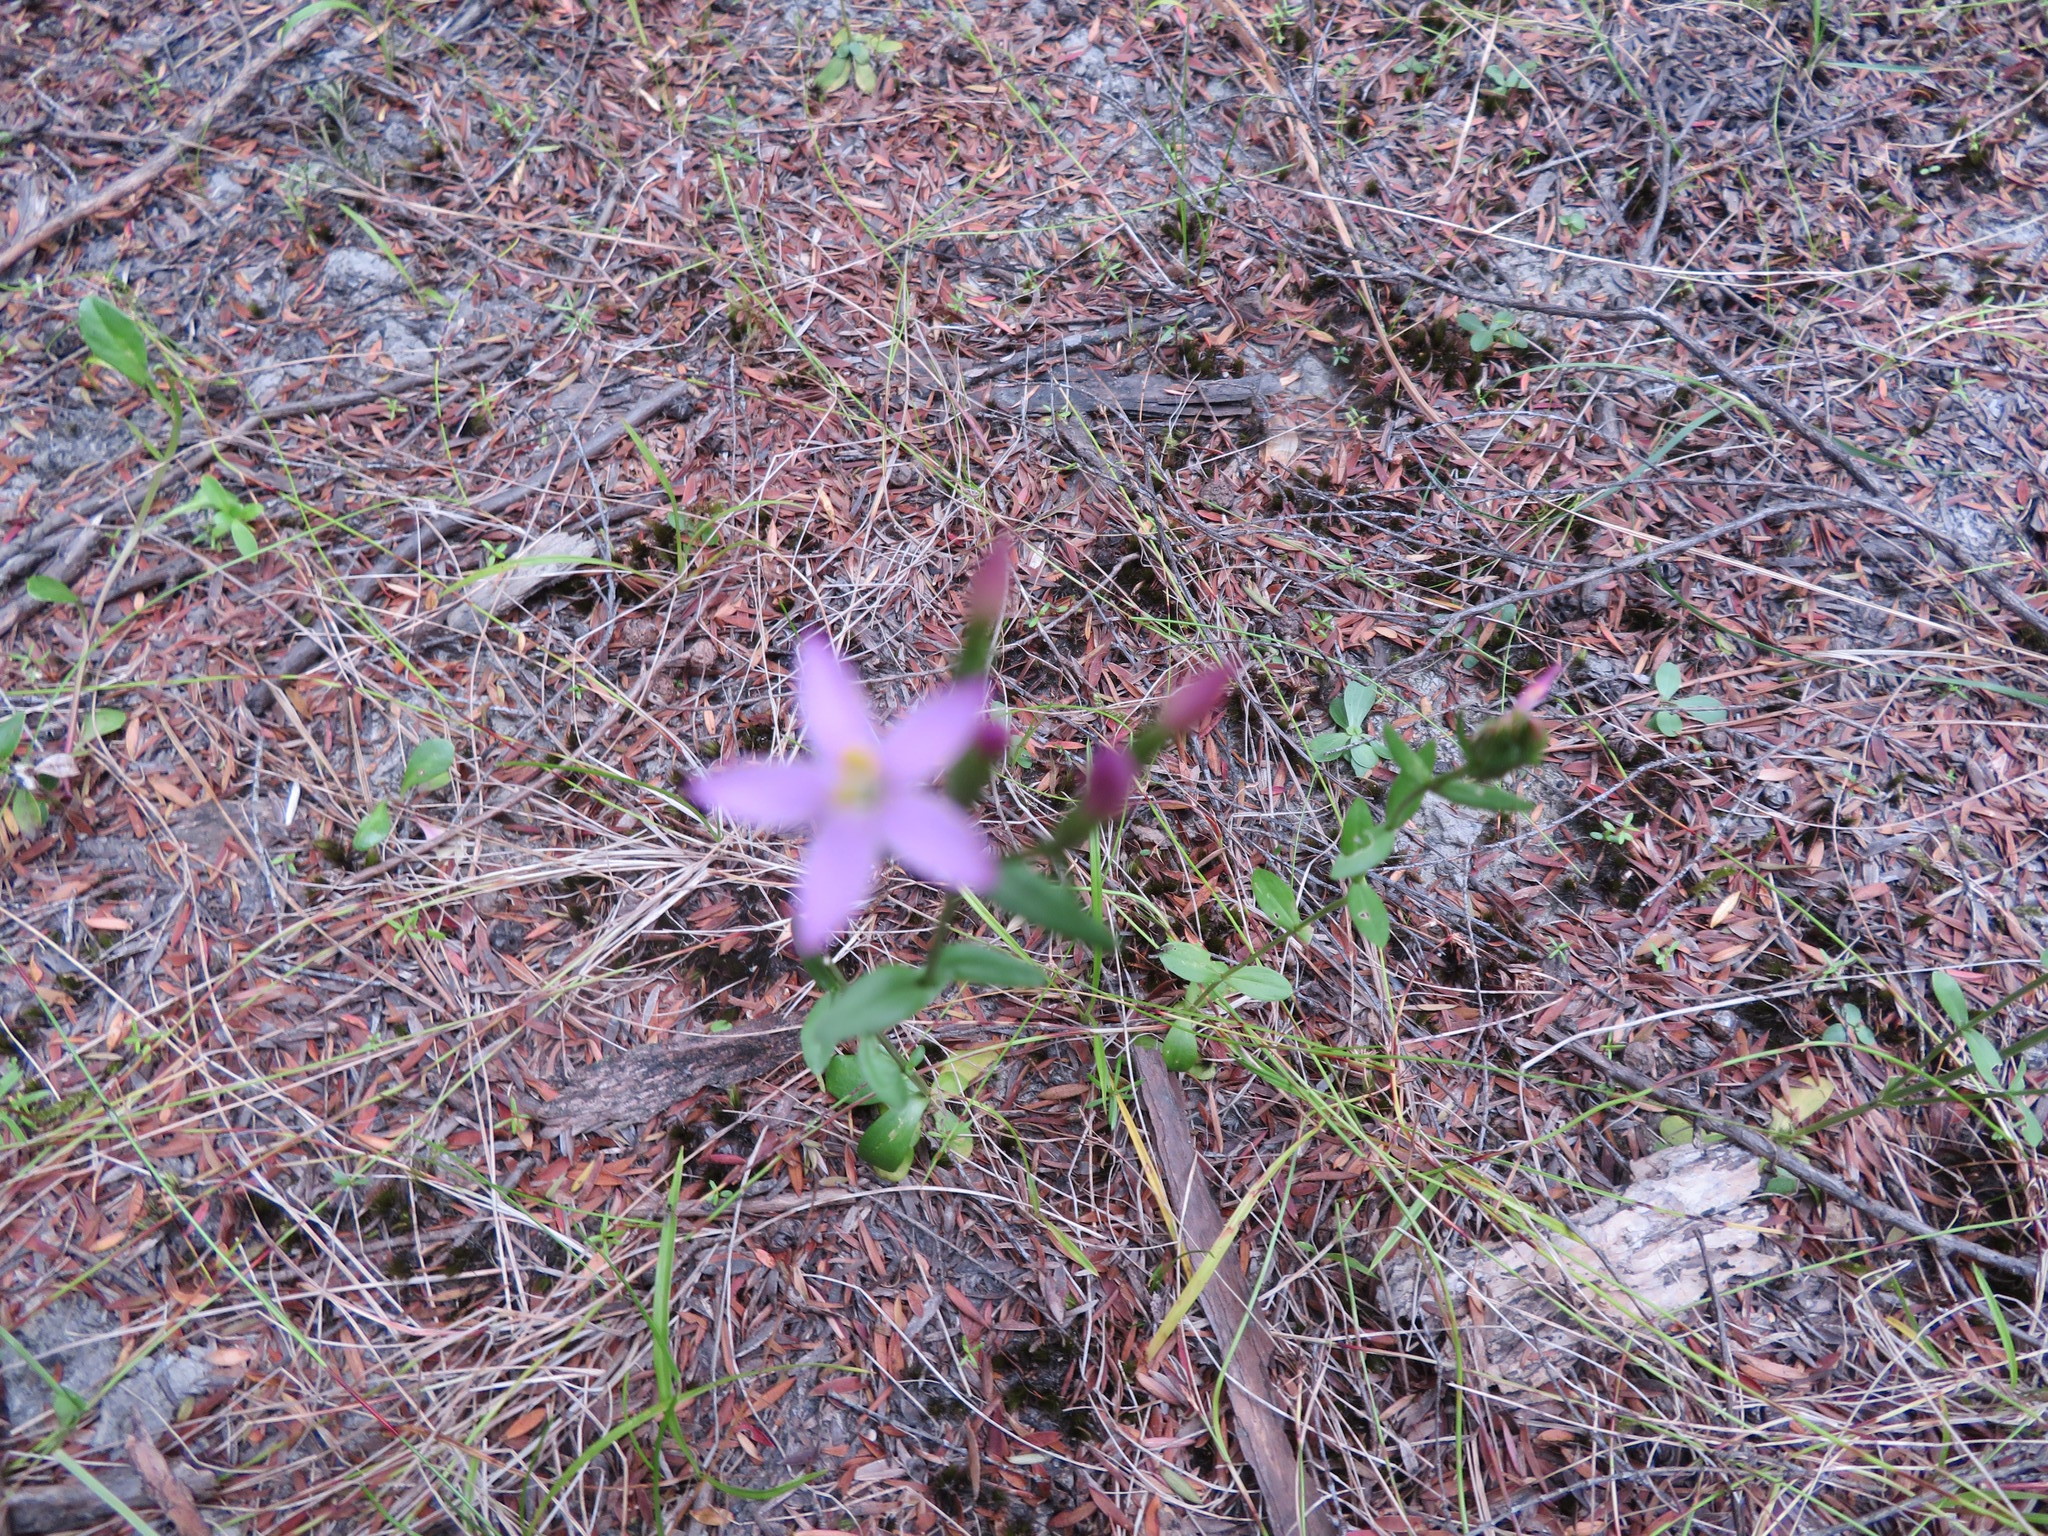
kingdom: Plantae
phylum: Tracheophyta
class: Magnoliopsida
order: Gentianales
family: Gentianaceae
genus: Centaurium
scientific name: Centaurium erythraea
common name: Common centaury
